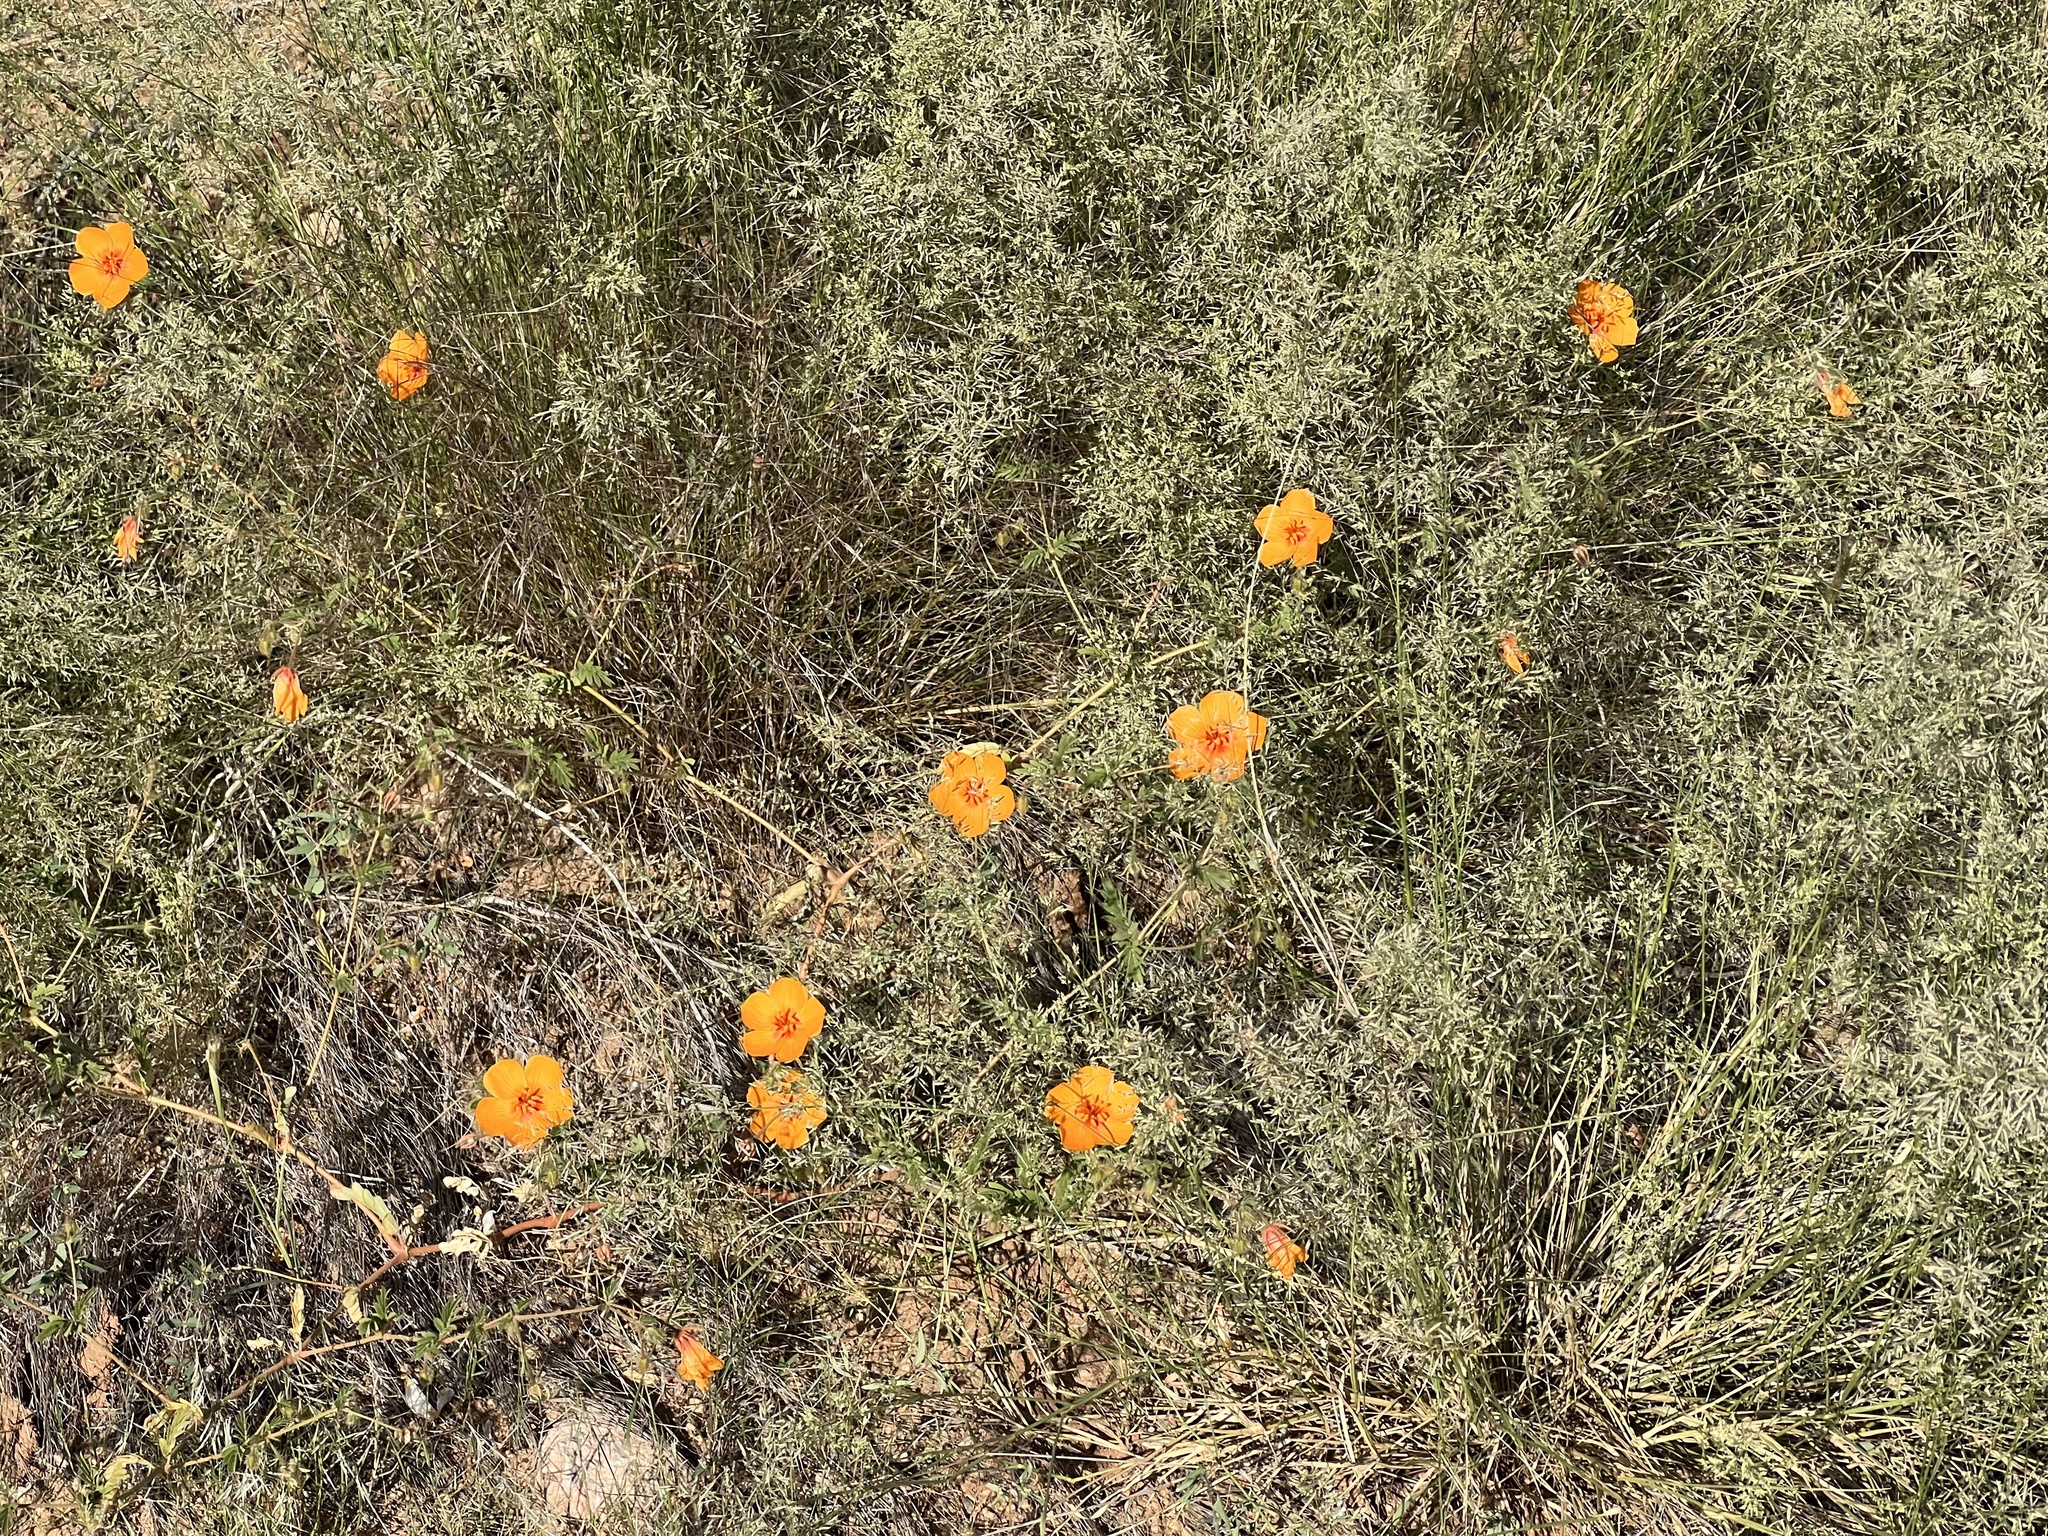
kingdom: Plantae
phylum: Tracheophyta
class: Magnoliopsida
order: Zygophyllales
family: Zygophyllaceae
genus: Kallstroemia
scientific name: Kallstroemia grandiflora
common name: Arizona-poppy
